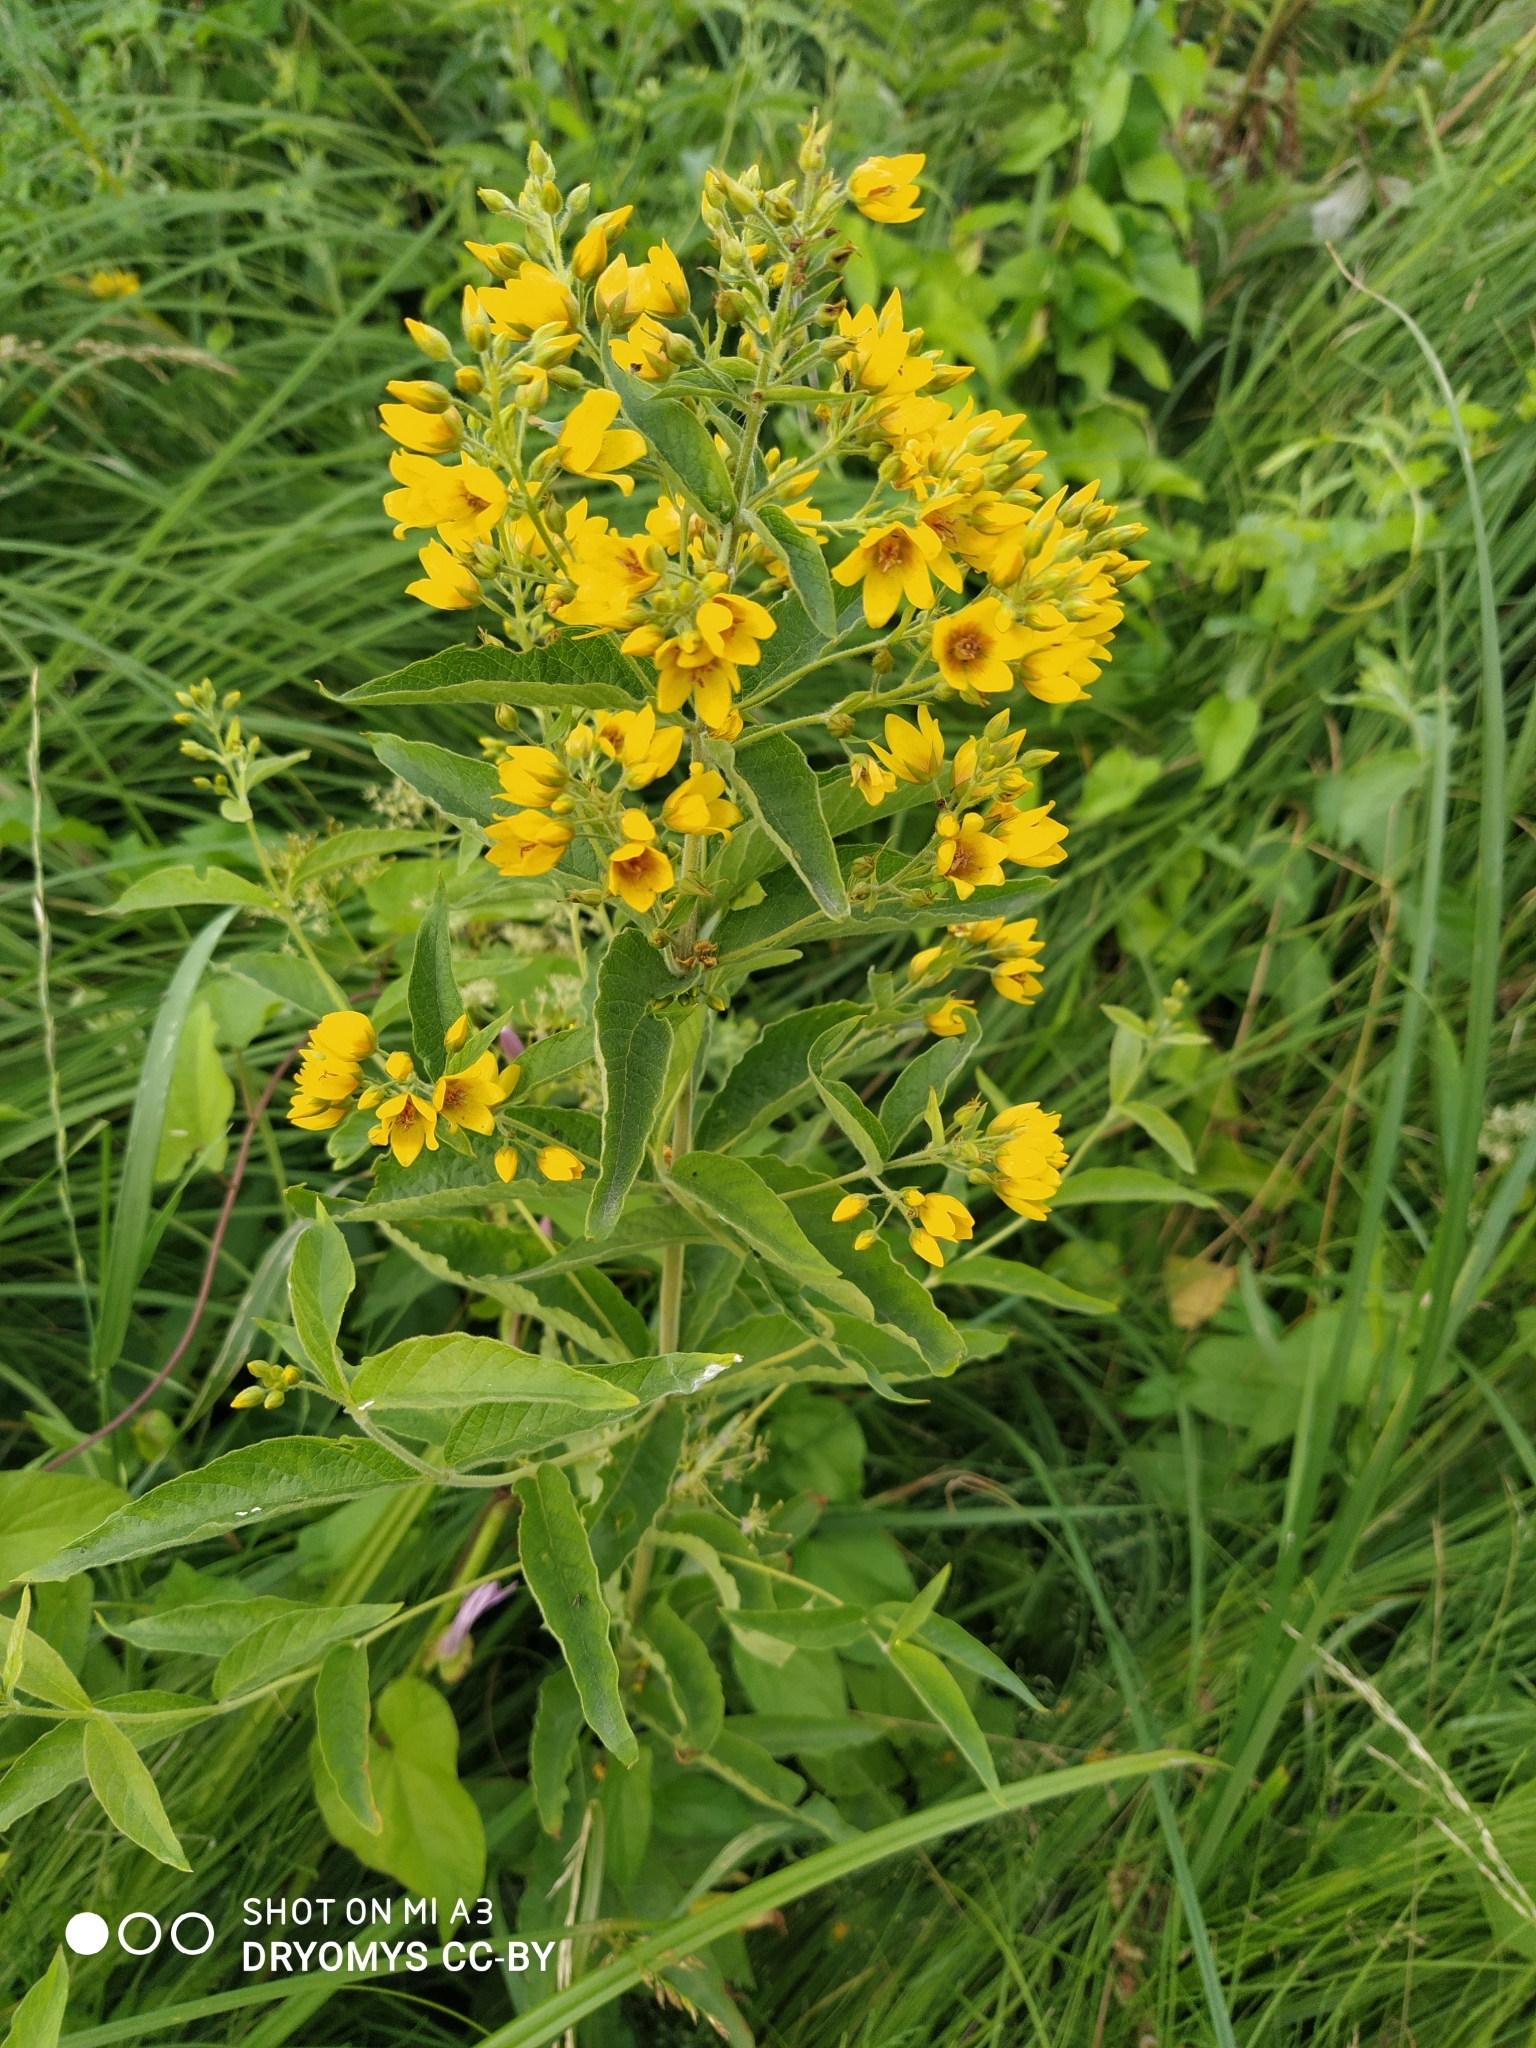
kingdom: Plantae
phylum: Tracheophyta
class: Magnoliopsida
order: Ericales
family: Primulaceae
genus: Lysimachia
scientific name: Lysimachia vulgaris
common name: Yellow loosestrife
